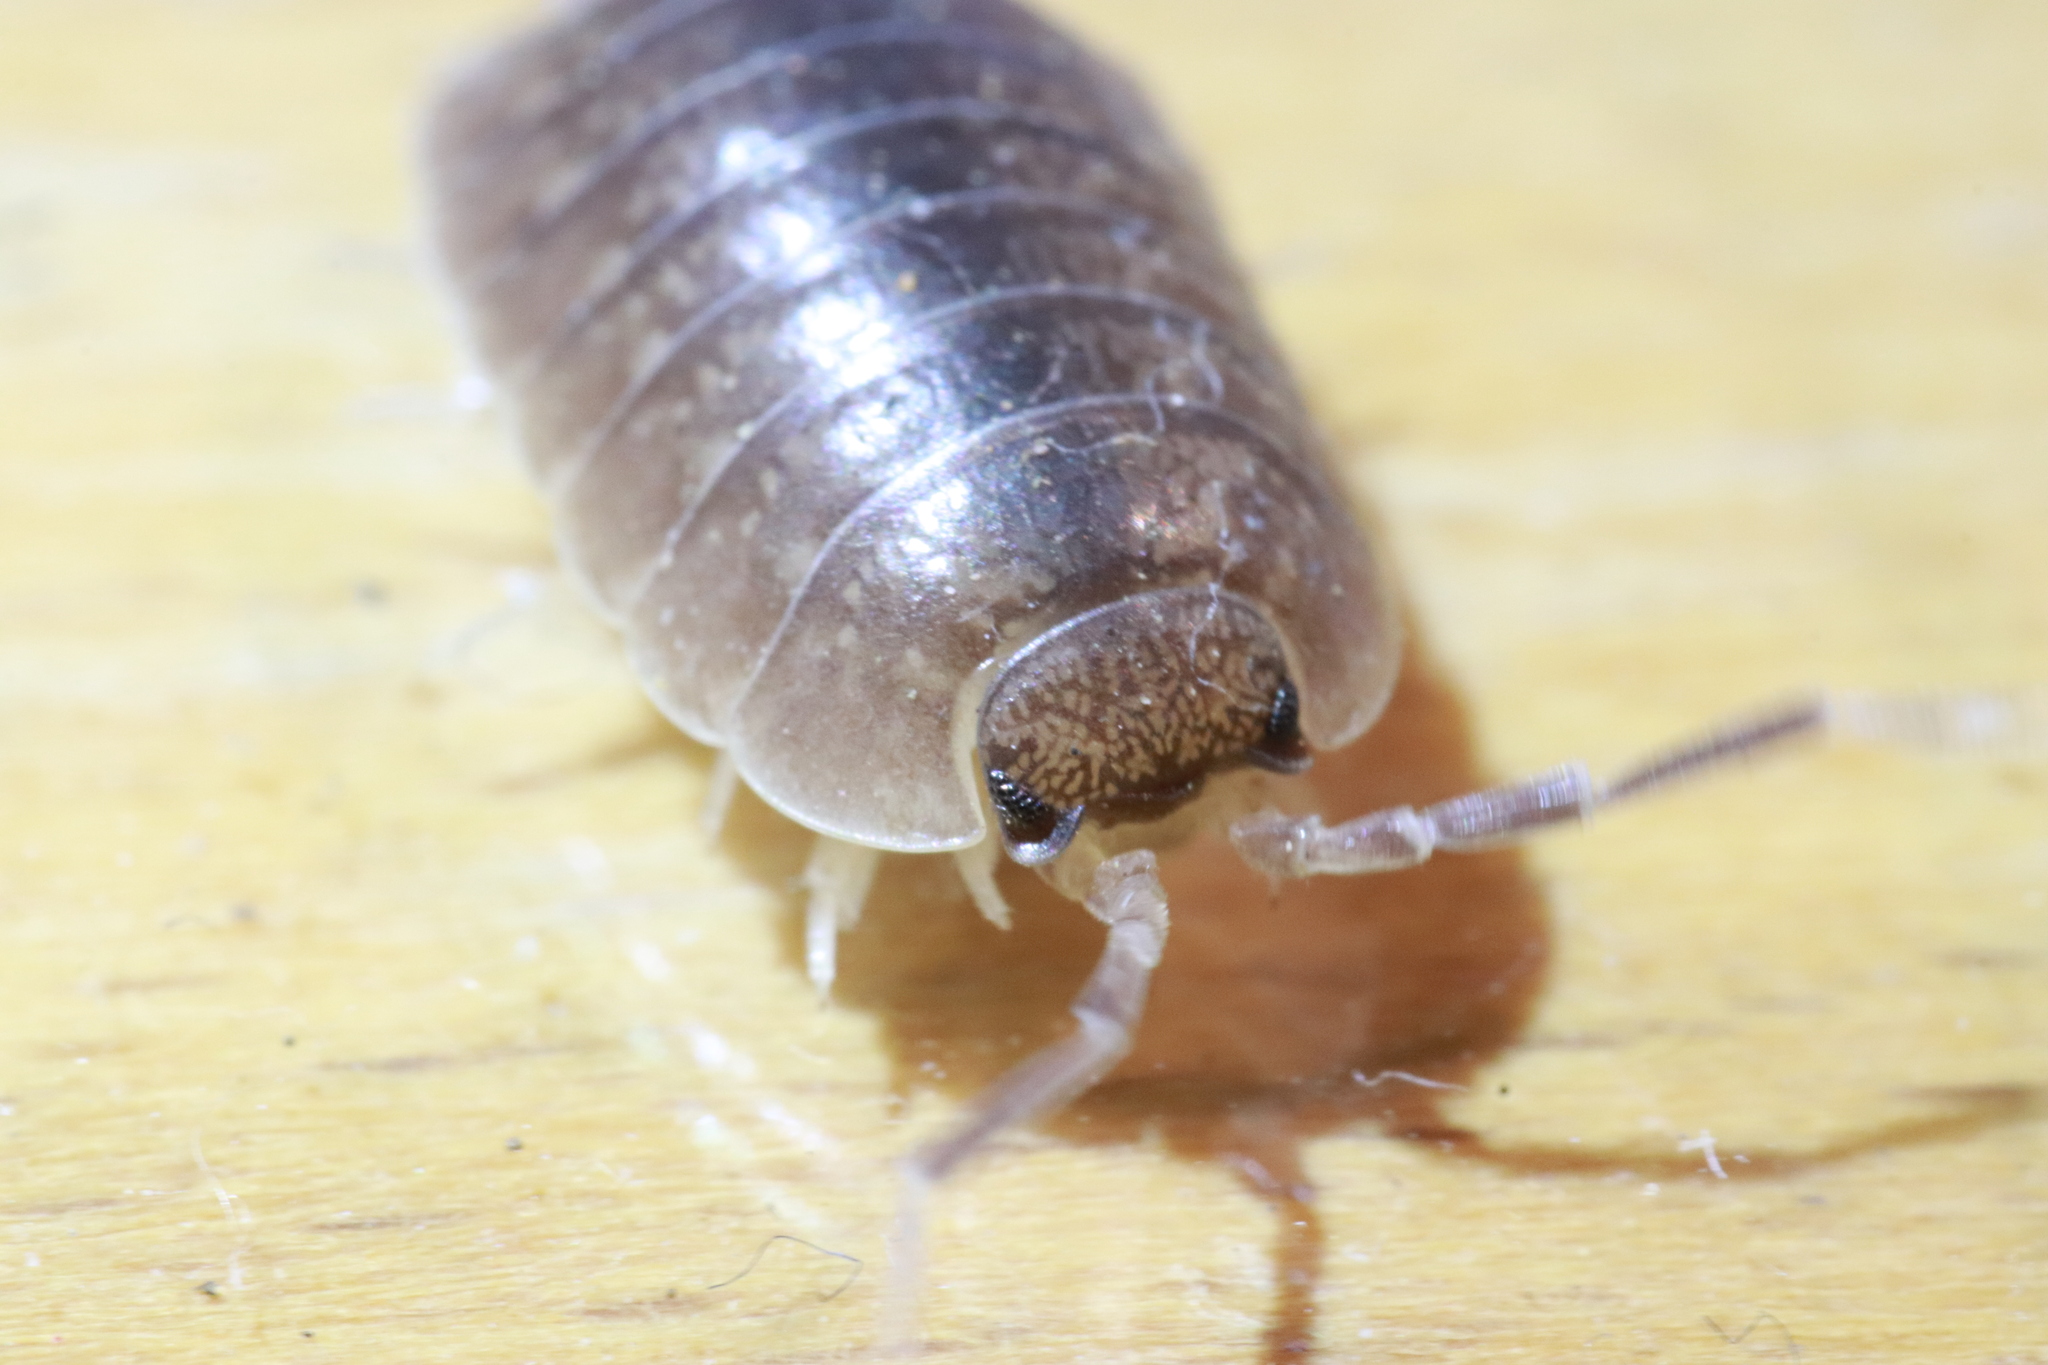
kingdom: Animalia
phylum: Arthropoda
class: Malacostraca
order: Isopoda
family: Porcellionidae
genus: Porcellio
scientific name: Porcellio laevis
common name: Swift woodlouse
